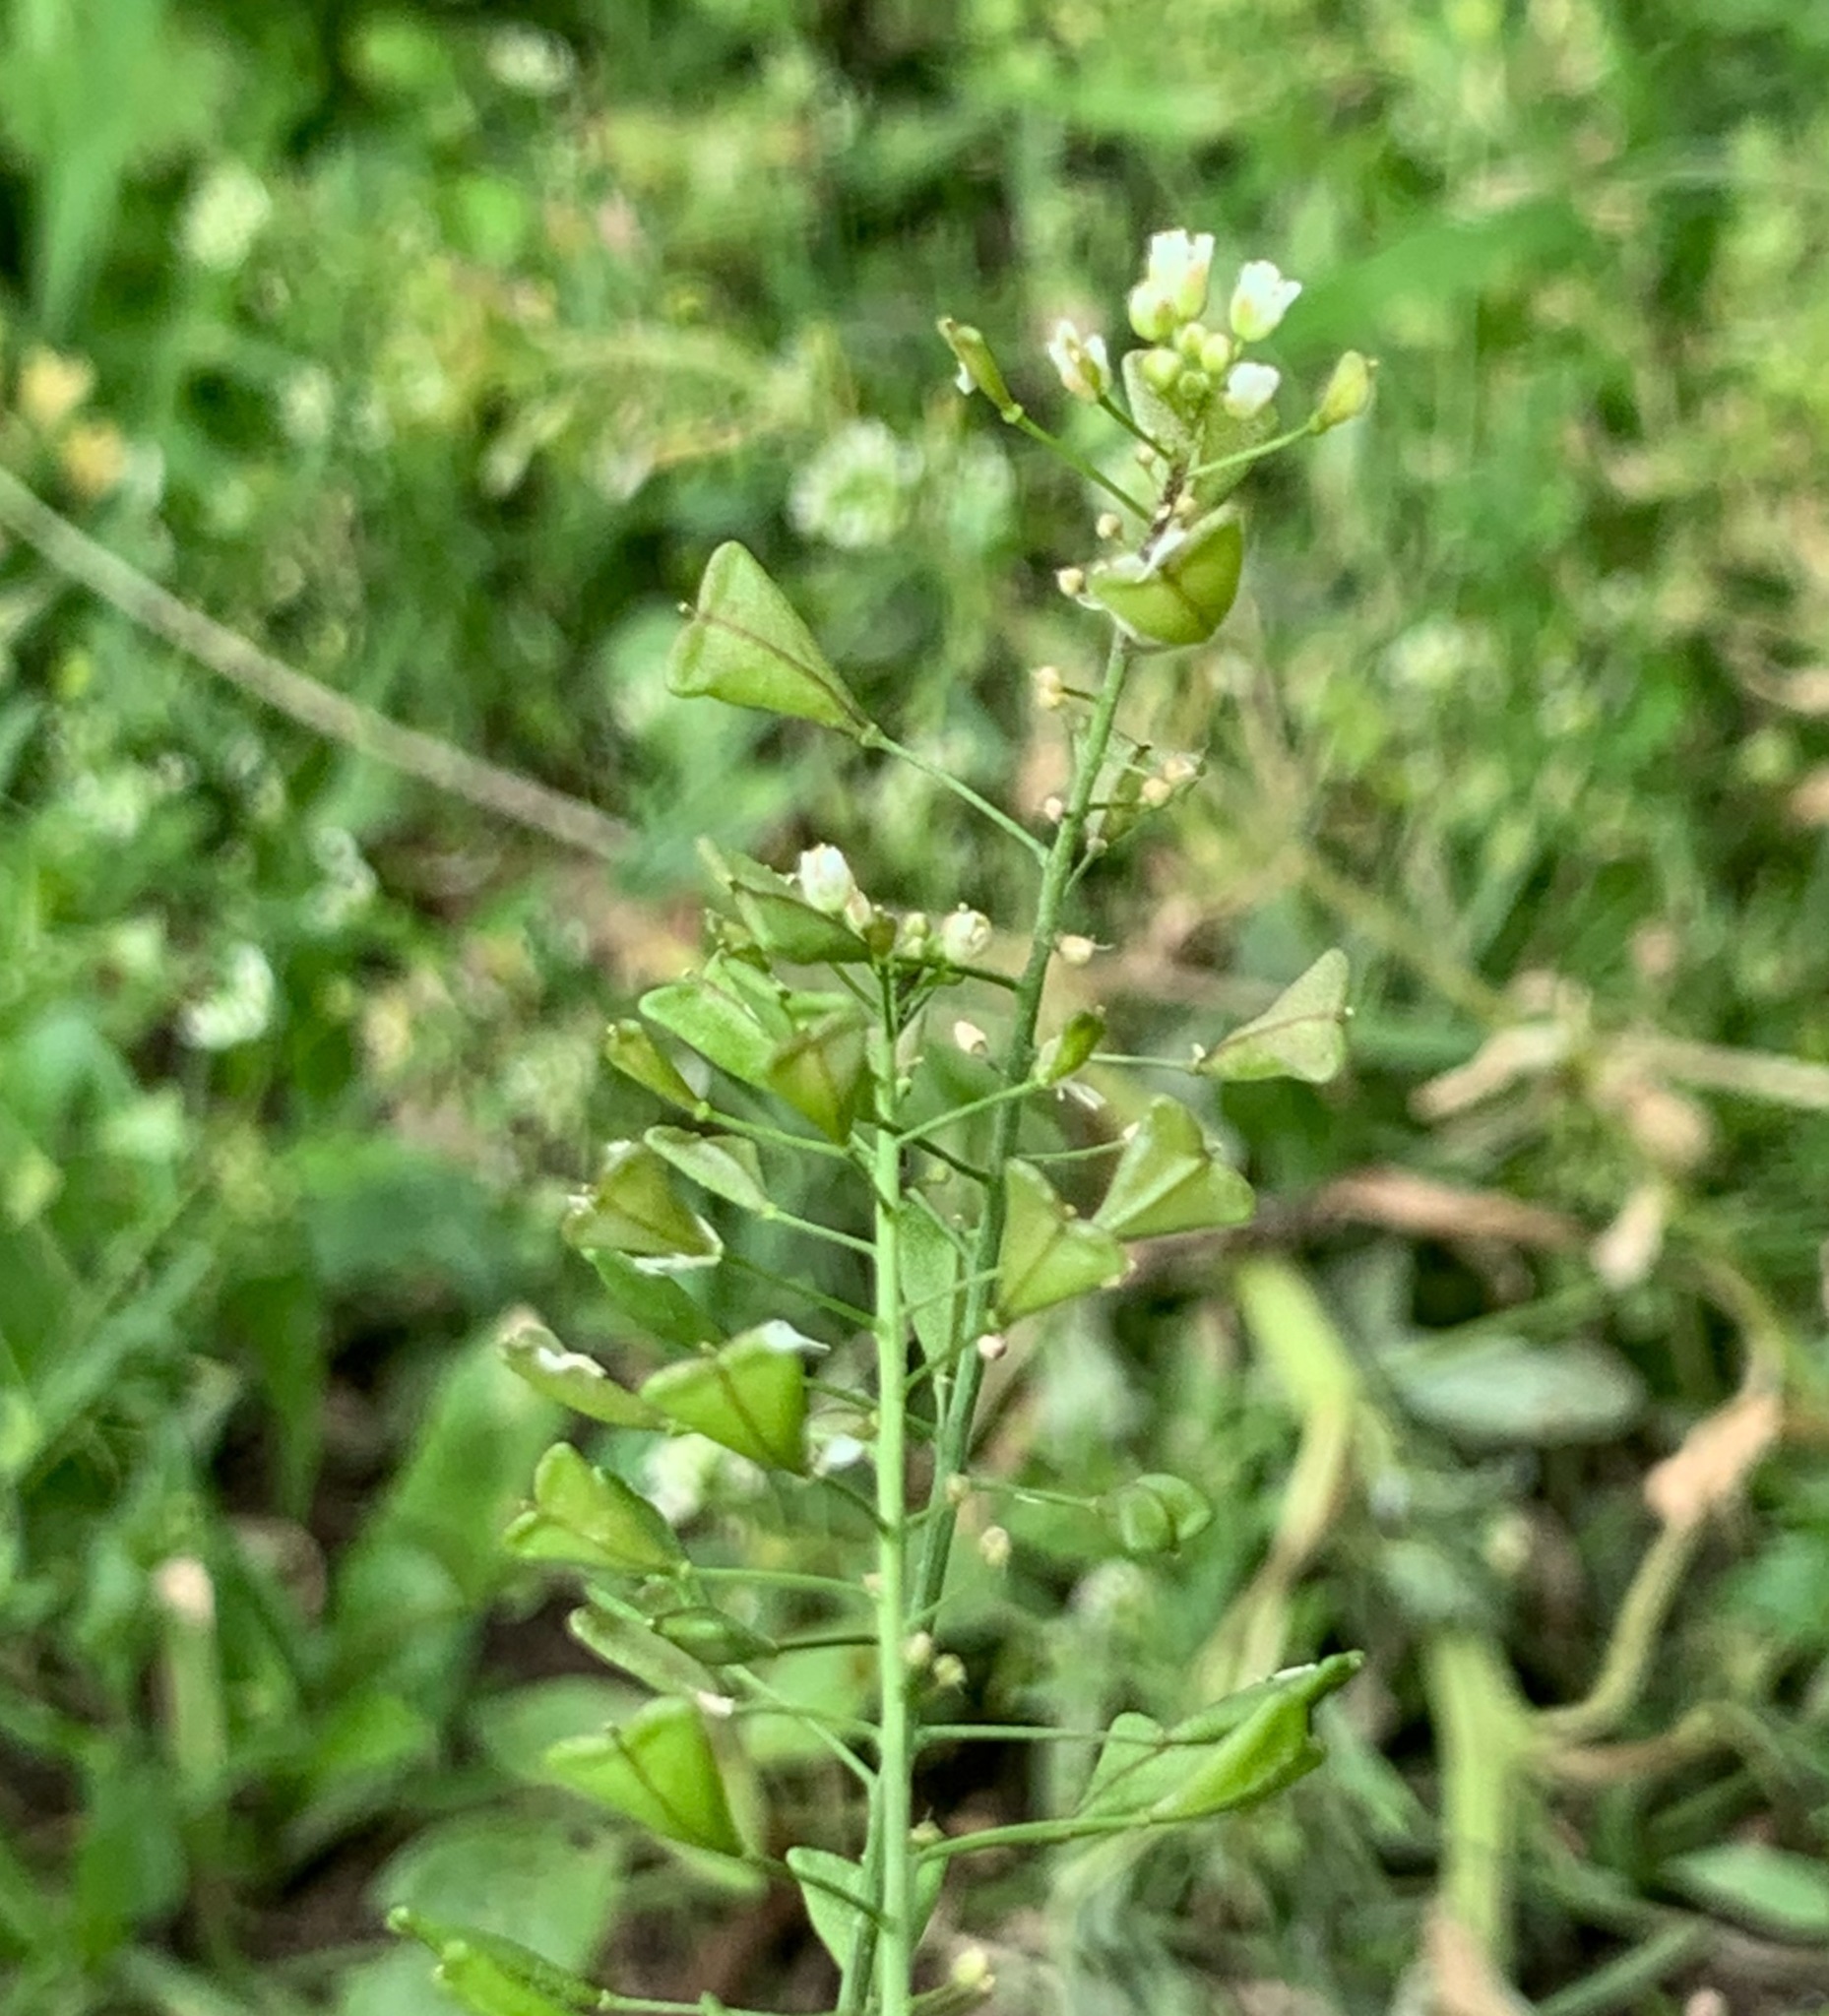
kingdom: Plantae
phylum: Tracheophyta
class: Magnoliopsida
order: Brassicales
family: Brassicaceae
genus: Capsella
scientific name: Capsella bursa-pastoris
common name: Shepherd's purse
